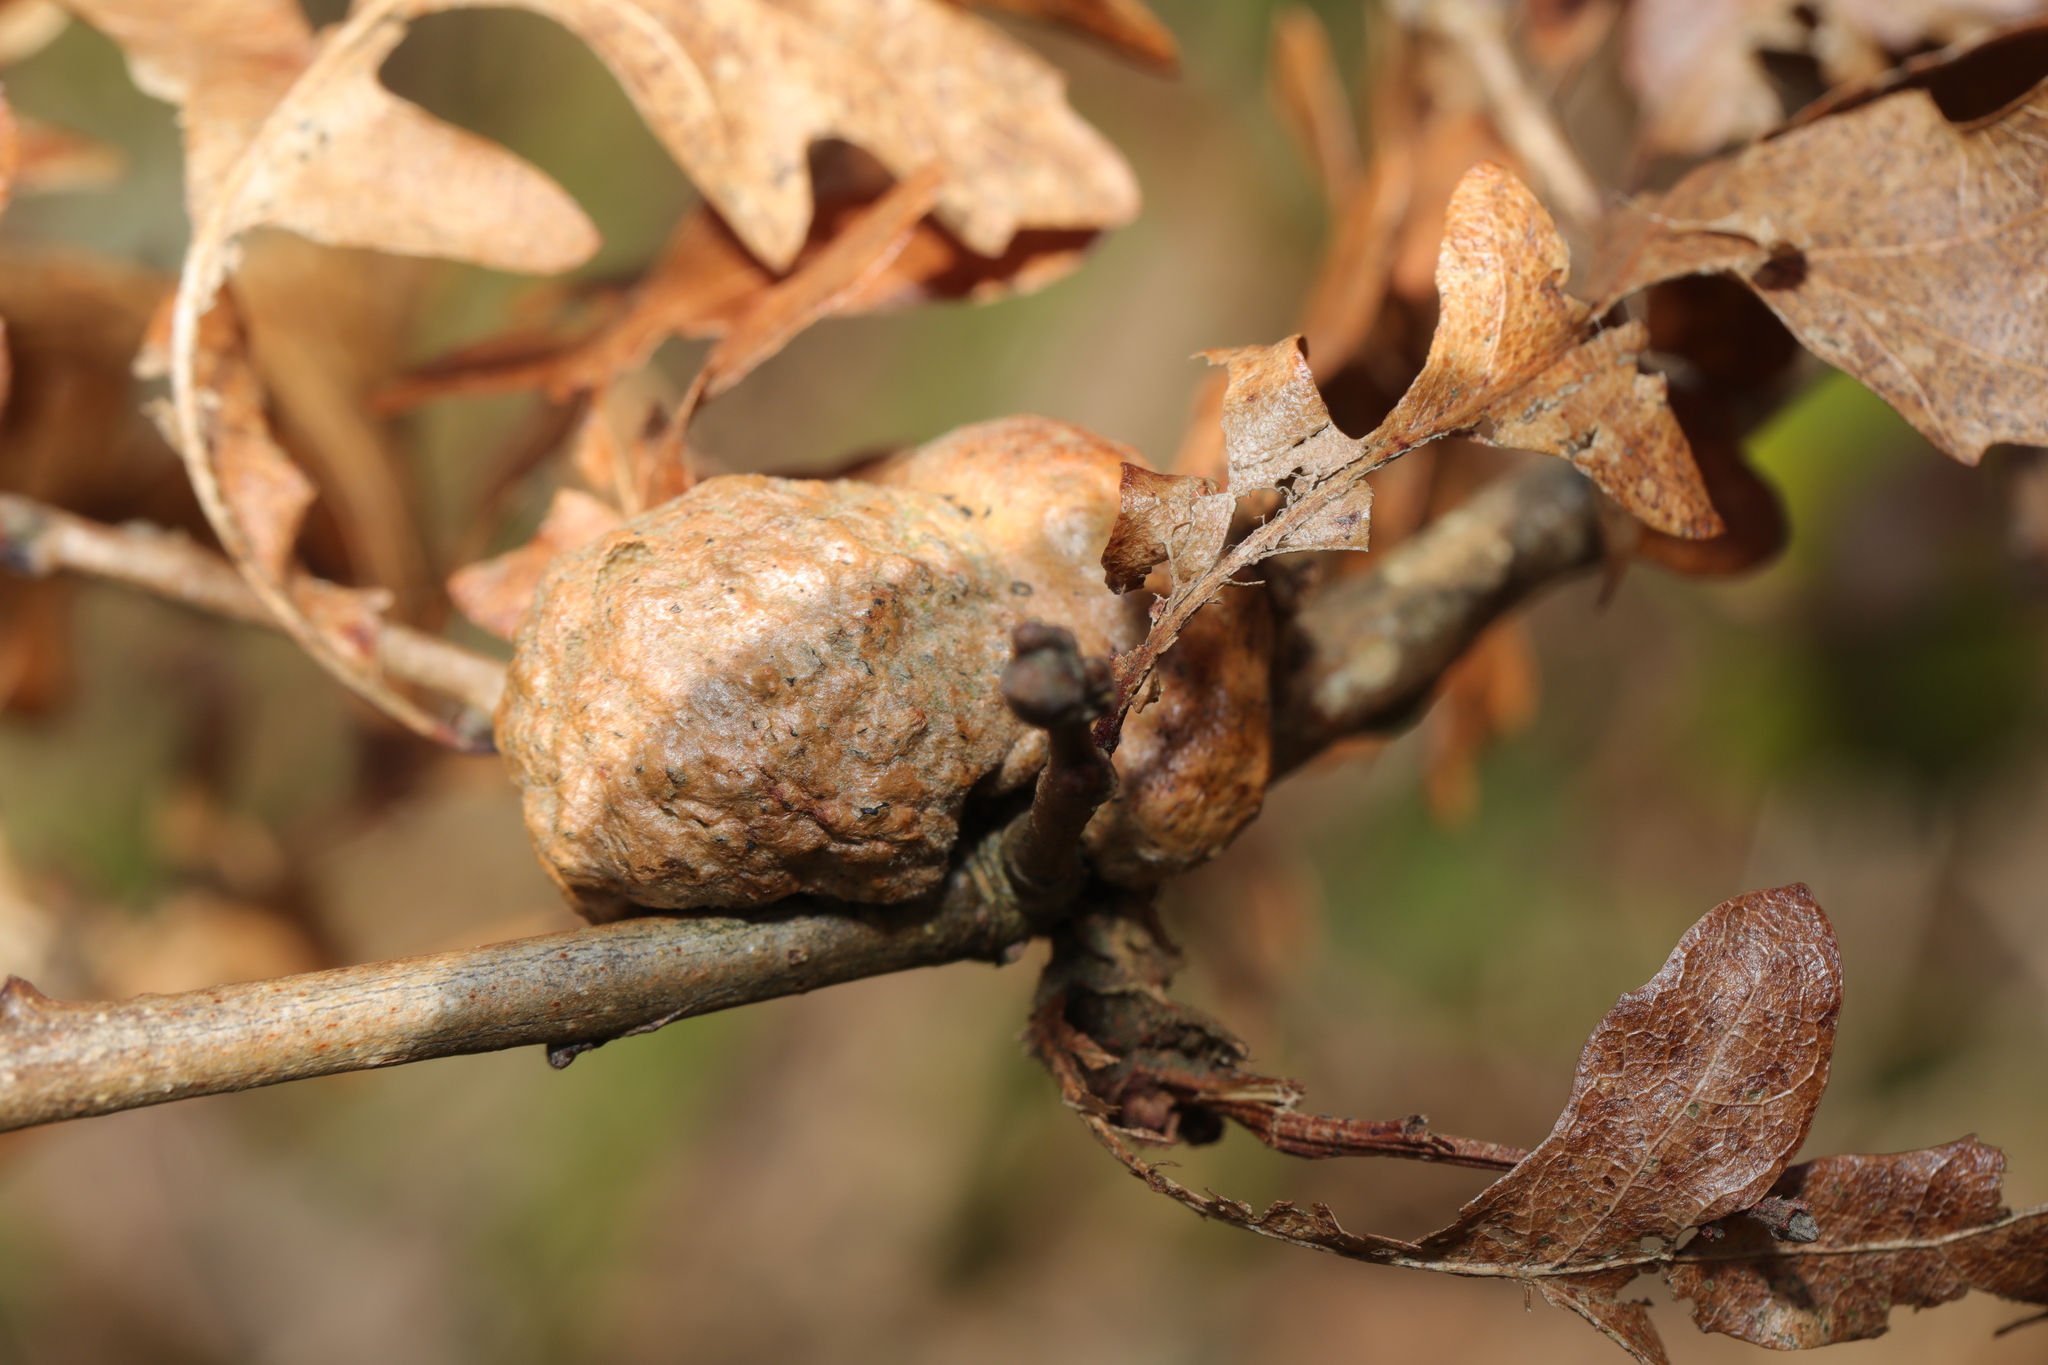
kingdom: Animalia
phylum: Arthropoda
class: Insecta
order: Hymenoptera
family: Cynipidae
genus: Aphelonyx
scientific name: Aphelonyx cerricola
